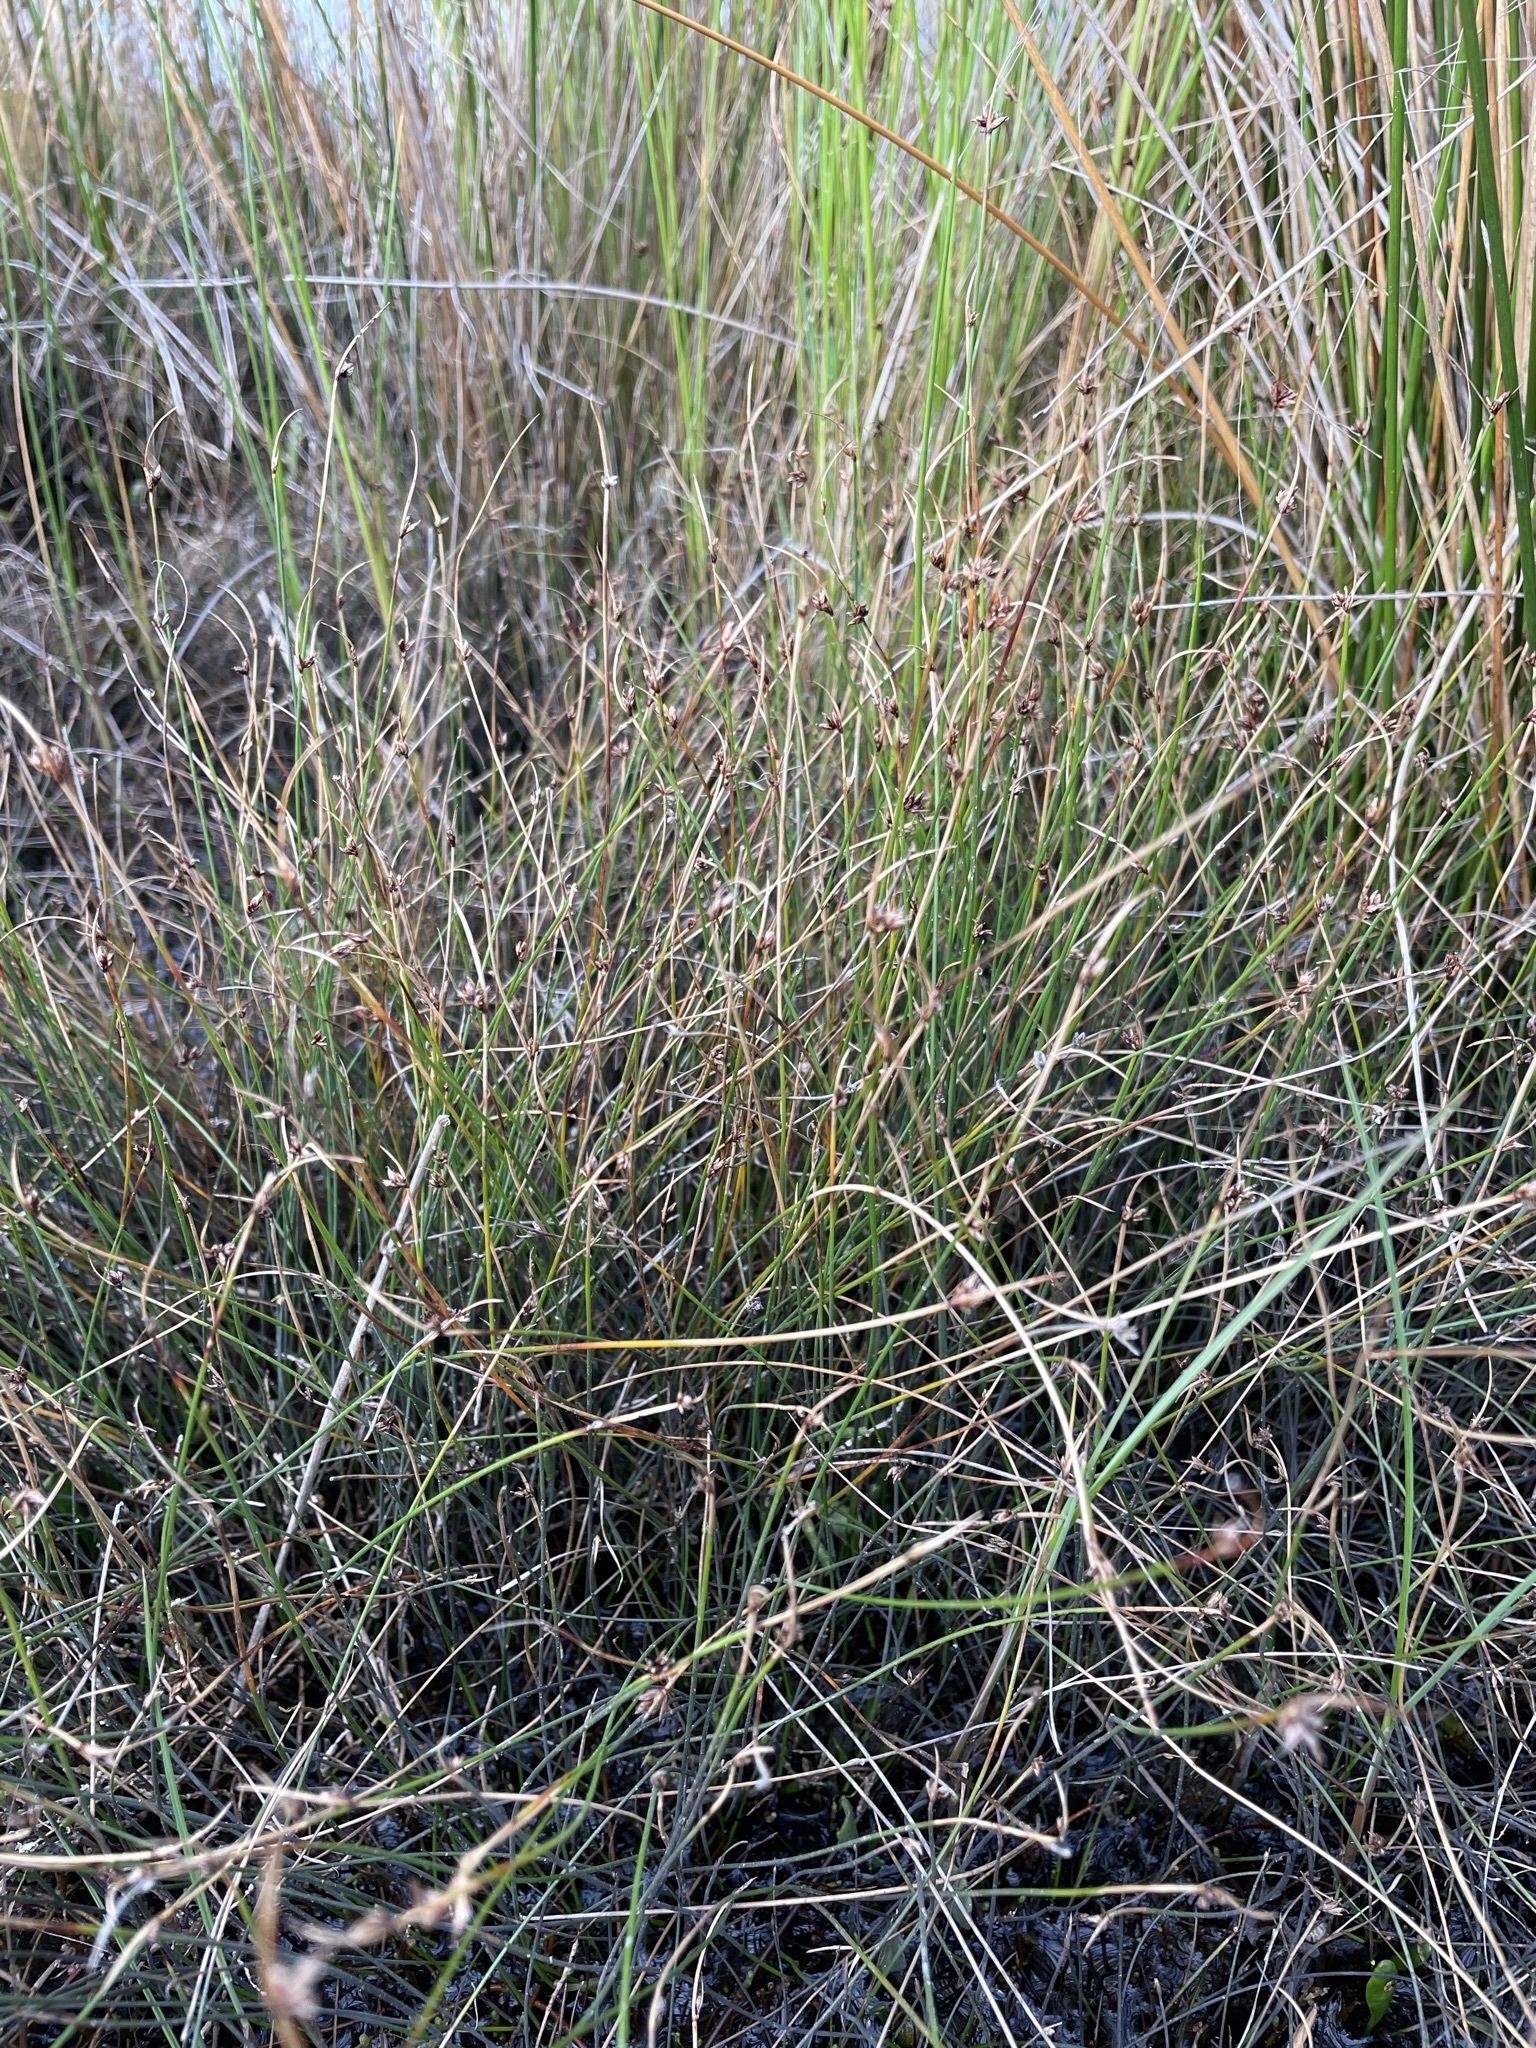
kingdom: Plantae
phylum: Tracheophyta
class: Liliopsida
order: Poales
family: Cyperaceae
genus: Schoenus
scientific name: Schoenus nitens
